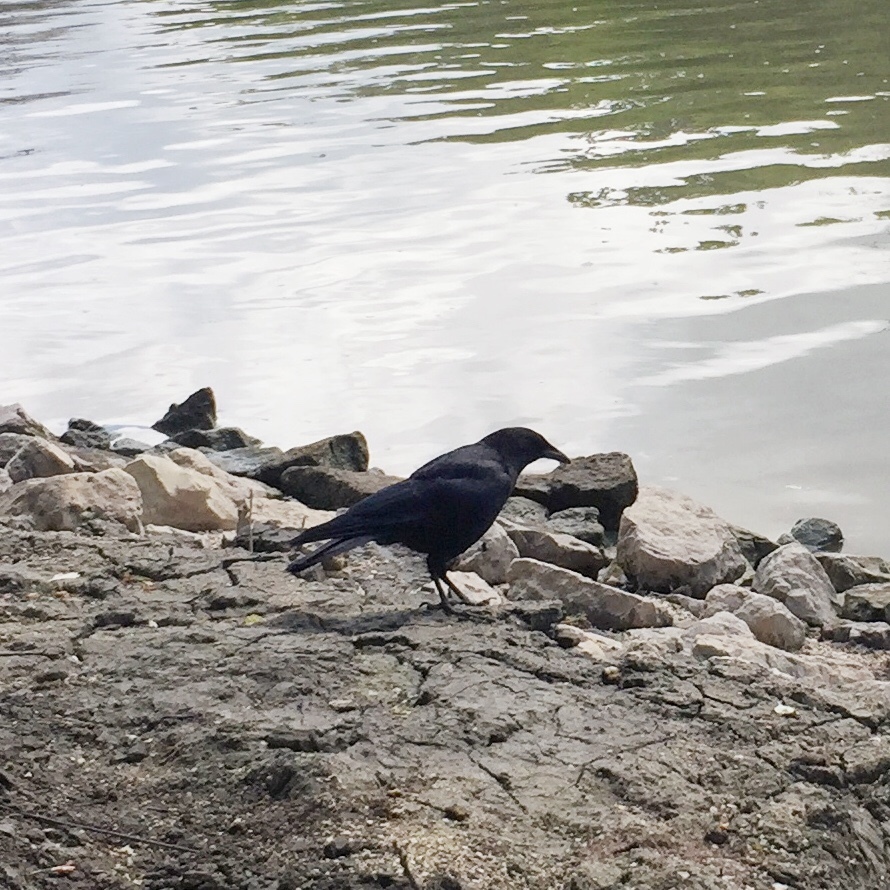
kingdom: Animalia
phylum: Chordata
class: Aves
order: Passeriformes
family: Corvidae
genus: Corvus
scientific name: Corvus brachyrhynchos
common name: American crow
